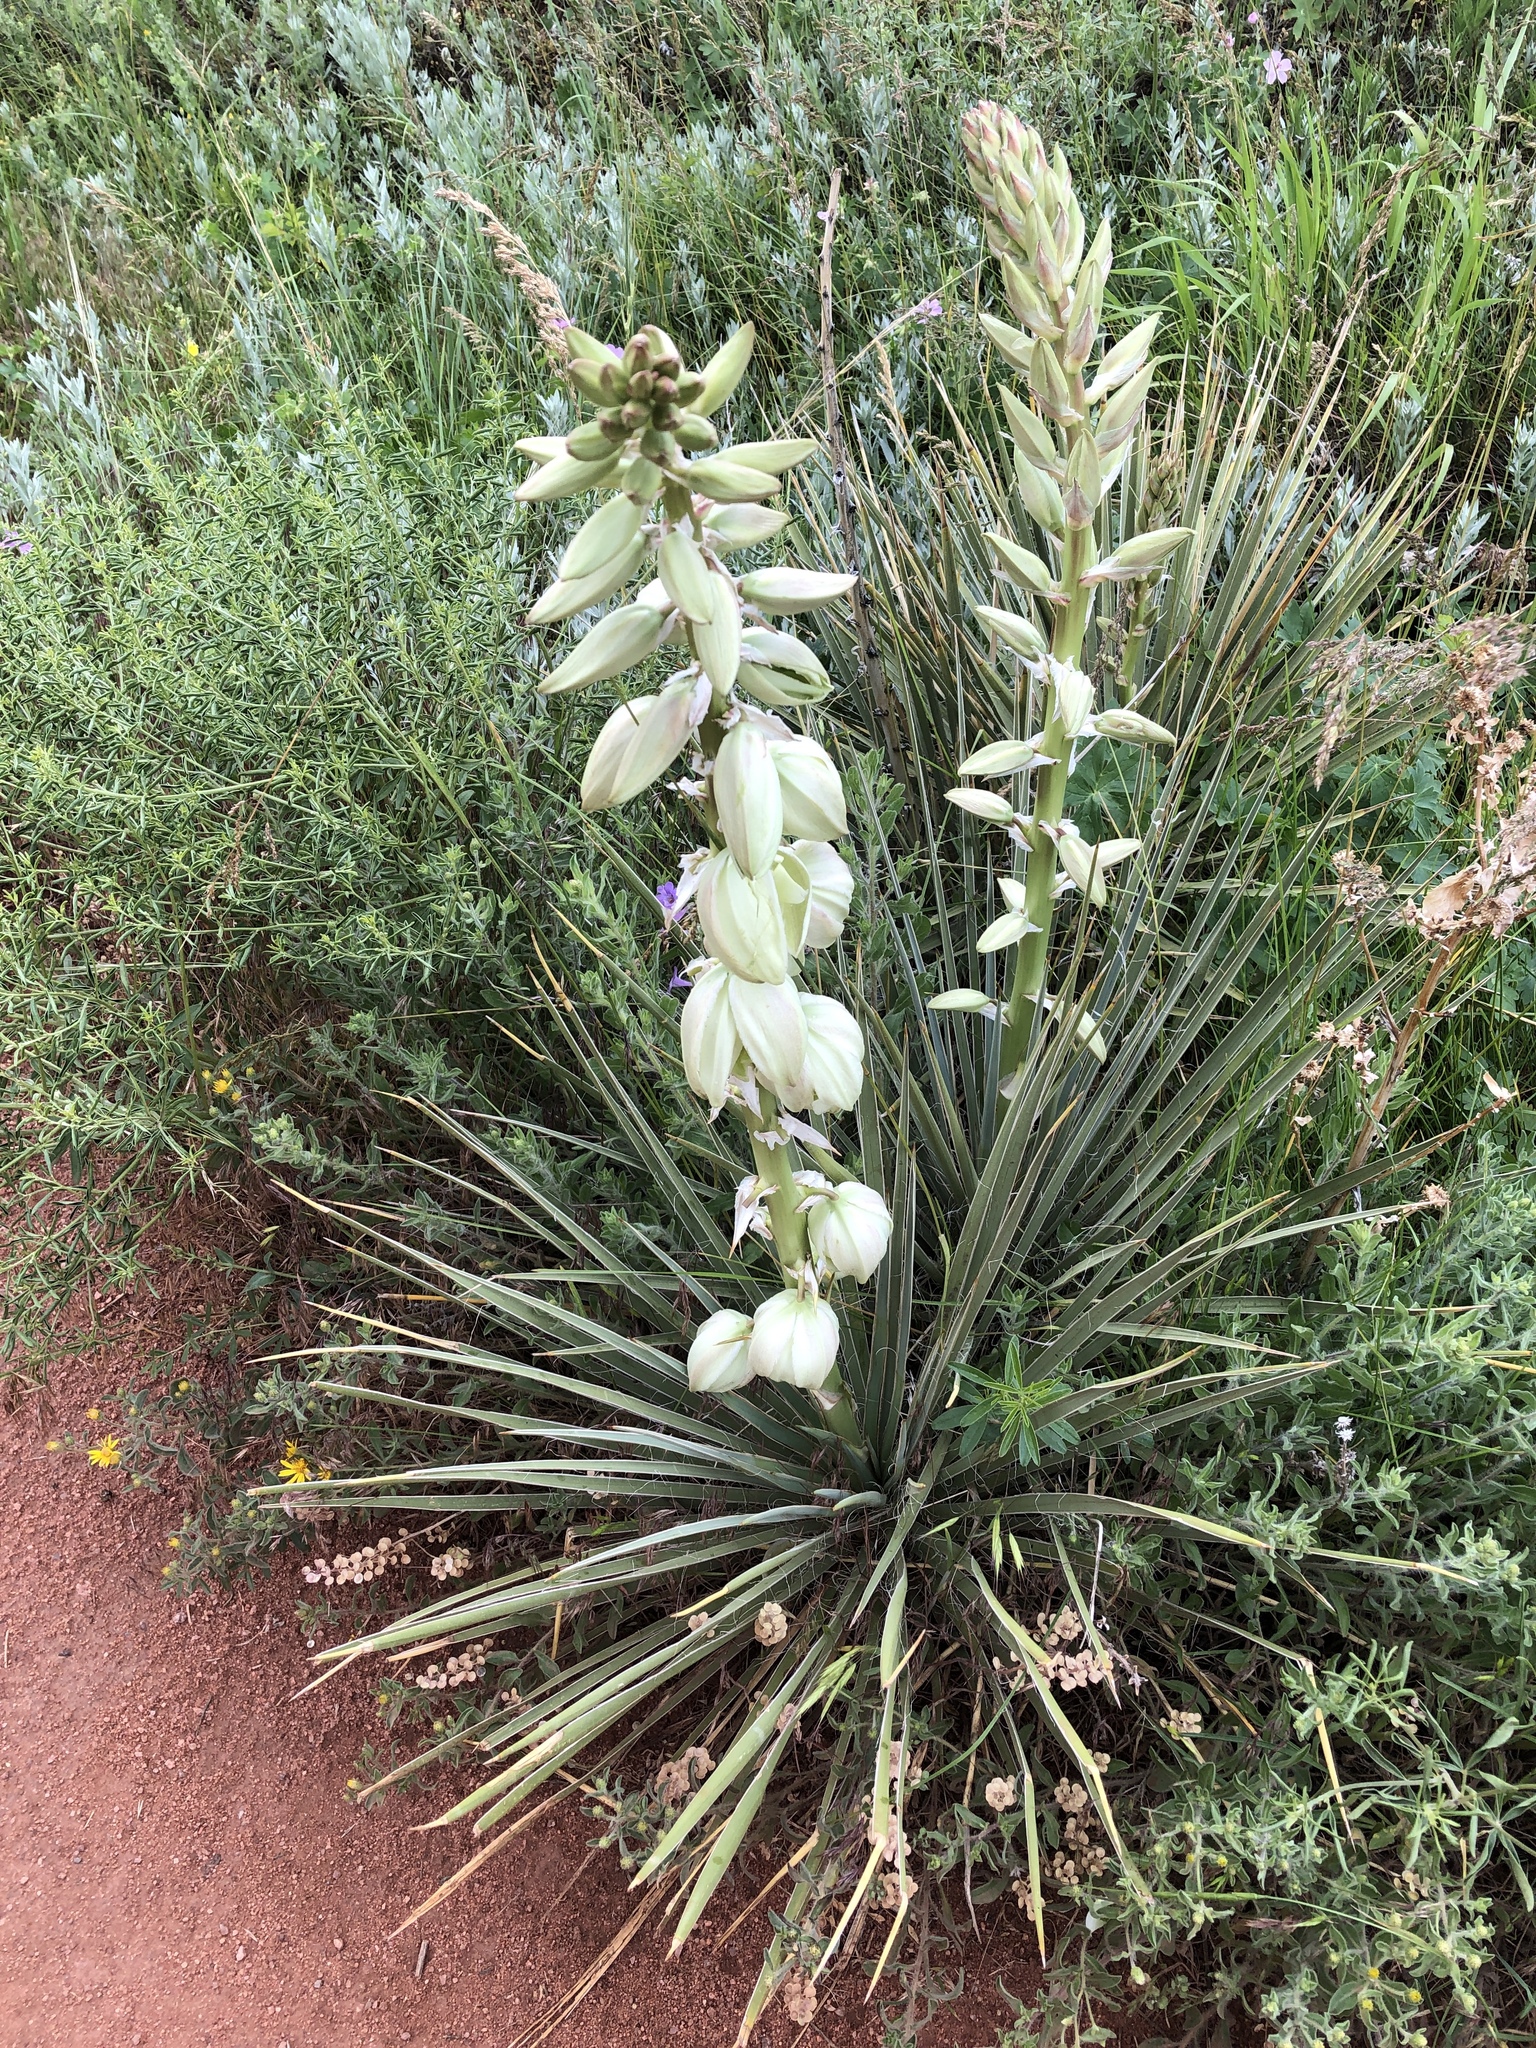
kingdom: Plantae
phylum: Tracheophyta
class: Liliopsida
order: Asparagales
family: Asparagaceae
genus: Yucca
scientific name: Yucca glauca
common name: Great plains yucca
